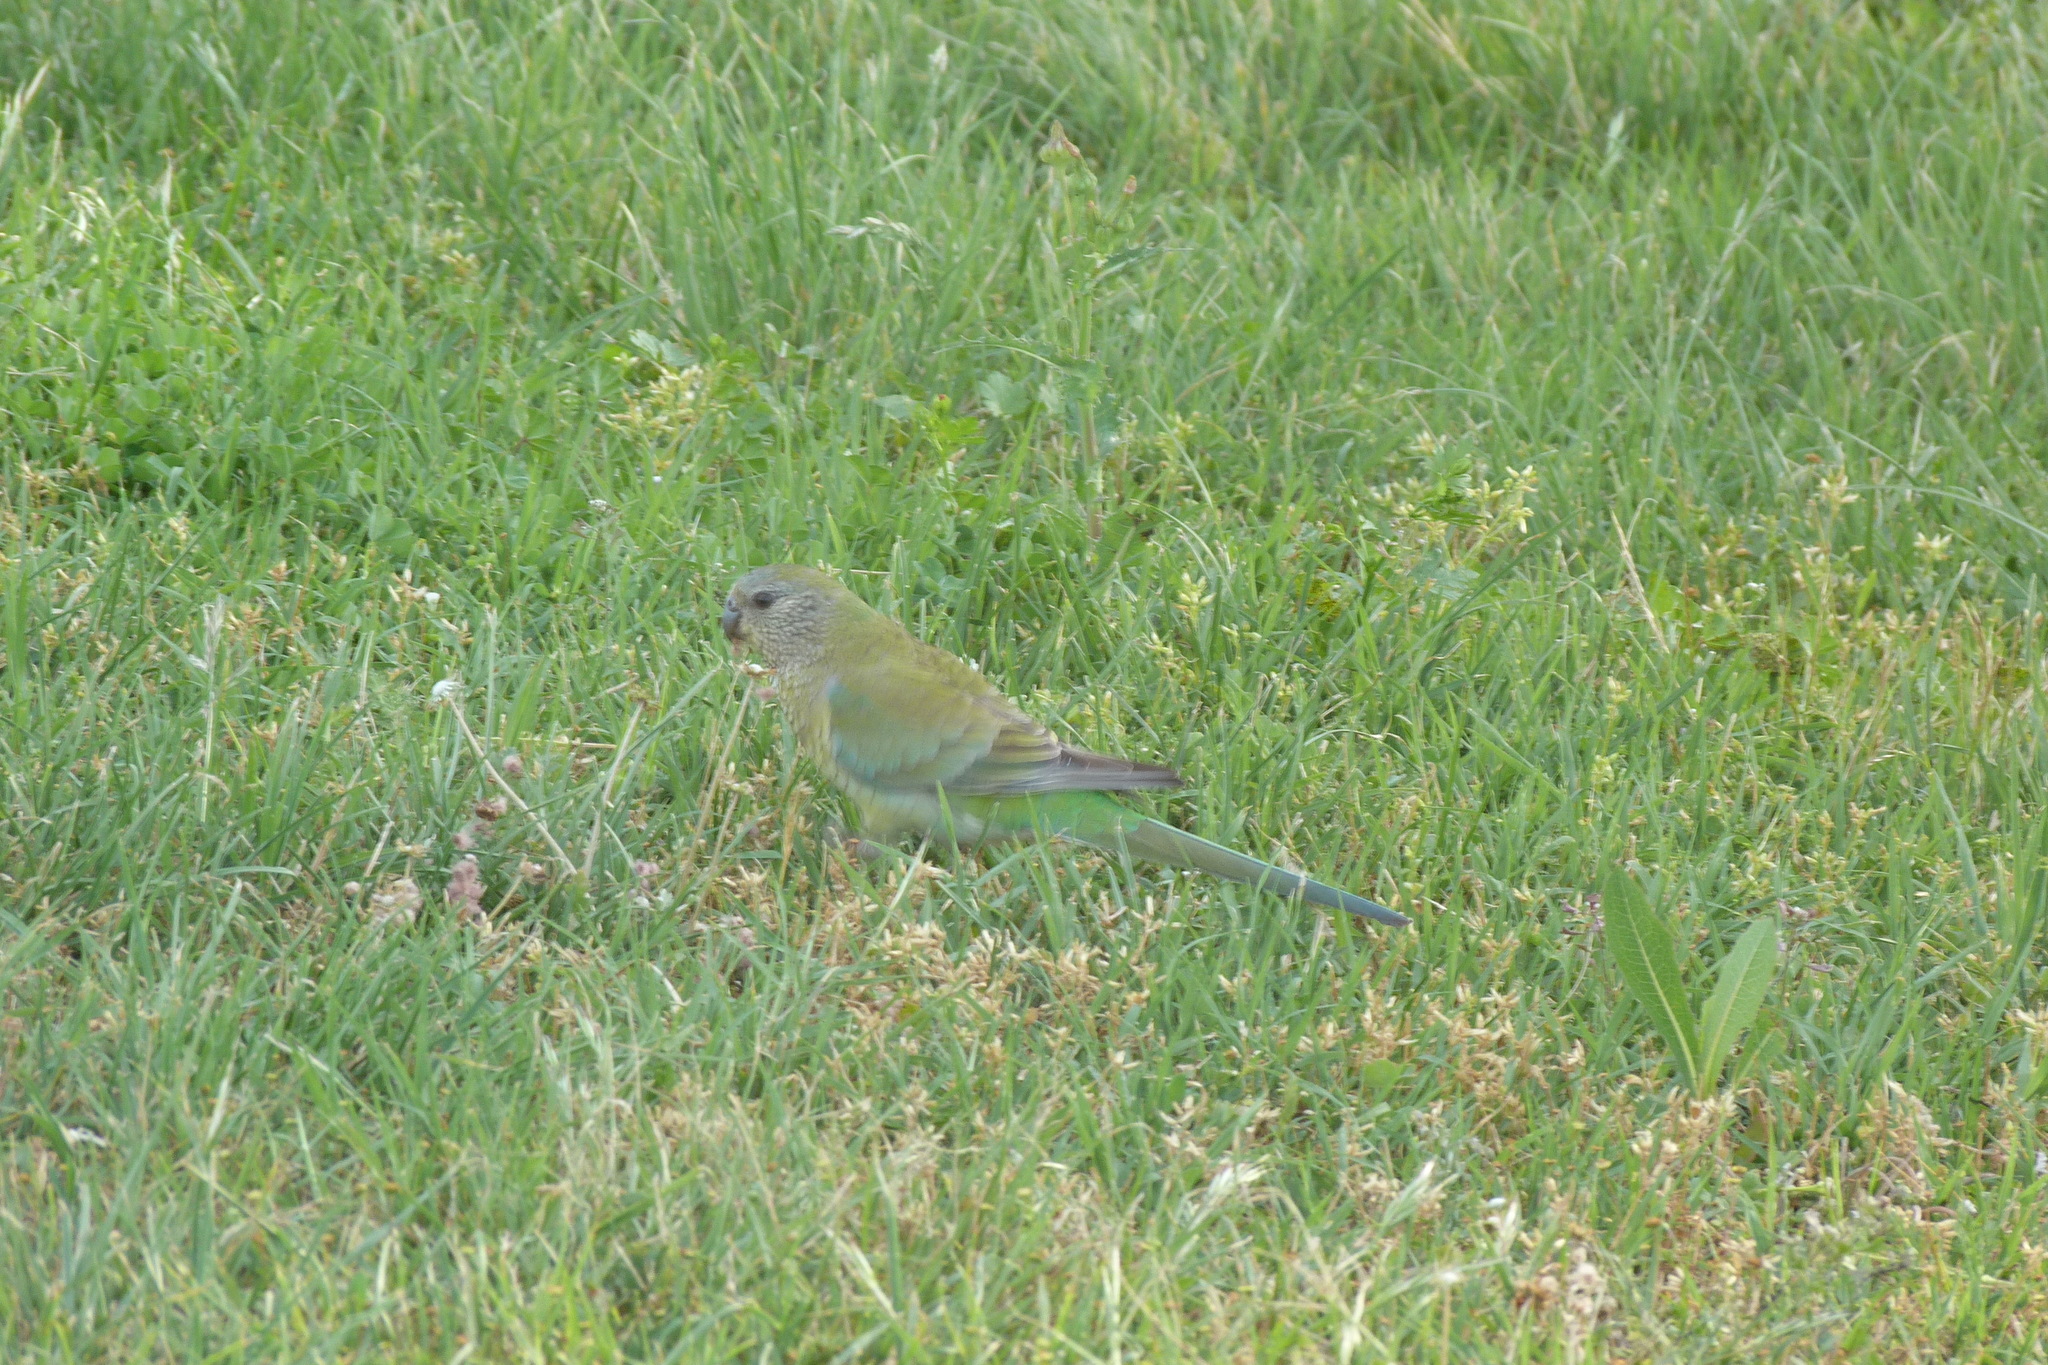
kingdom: Animalia
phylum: Chordata
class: Aves
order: Psittaciformes
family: Psittacidae
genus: Psephotus
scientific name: Psephotus haematonotus
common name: Red-rumped parrot
